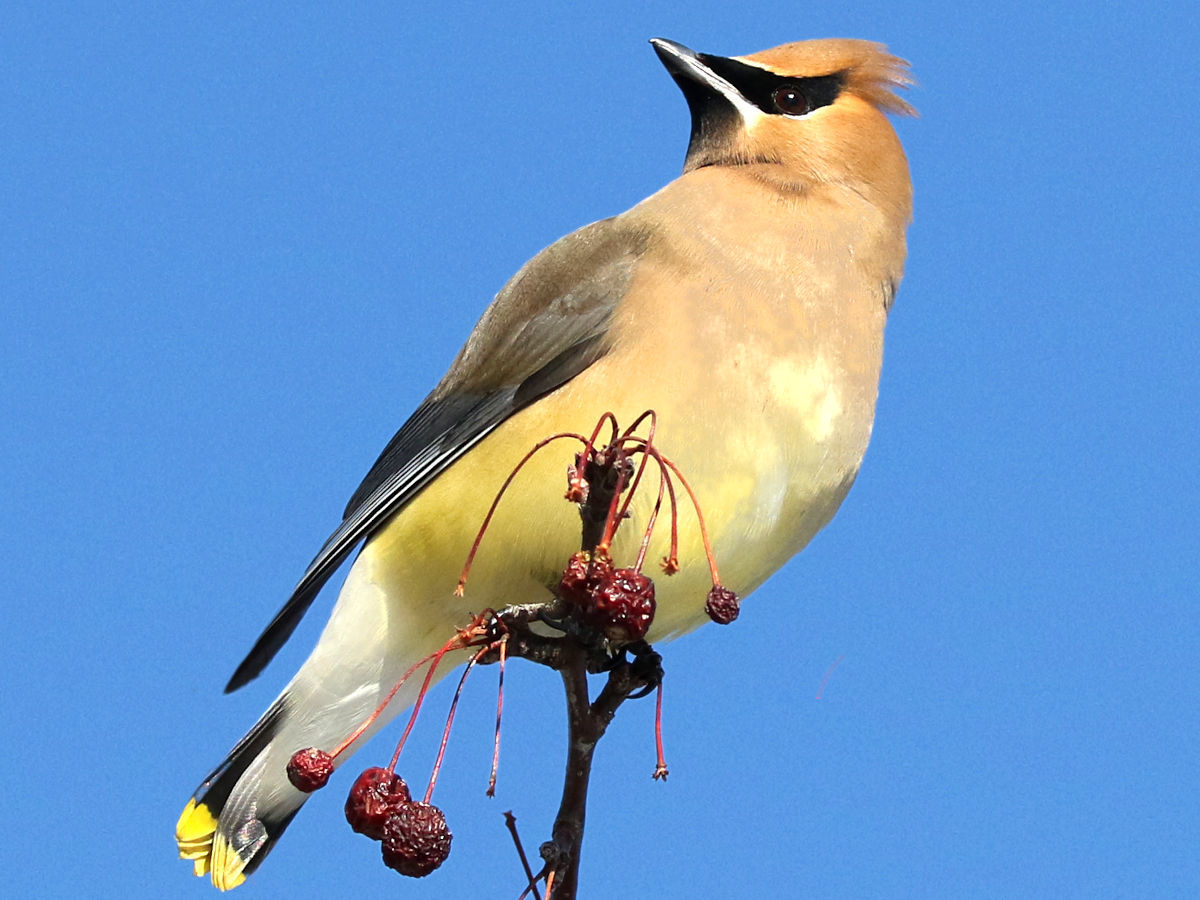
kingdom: Animalia
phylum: Chordata
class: Aves
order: Passeriformes
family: Bombycillidae
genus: Bombycilla
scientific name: Bombycilla cedrorum
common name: Cedar waxwing
